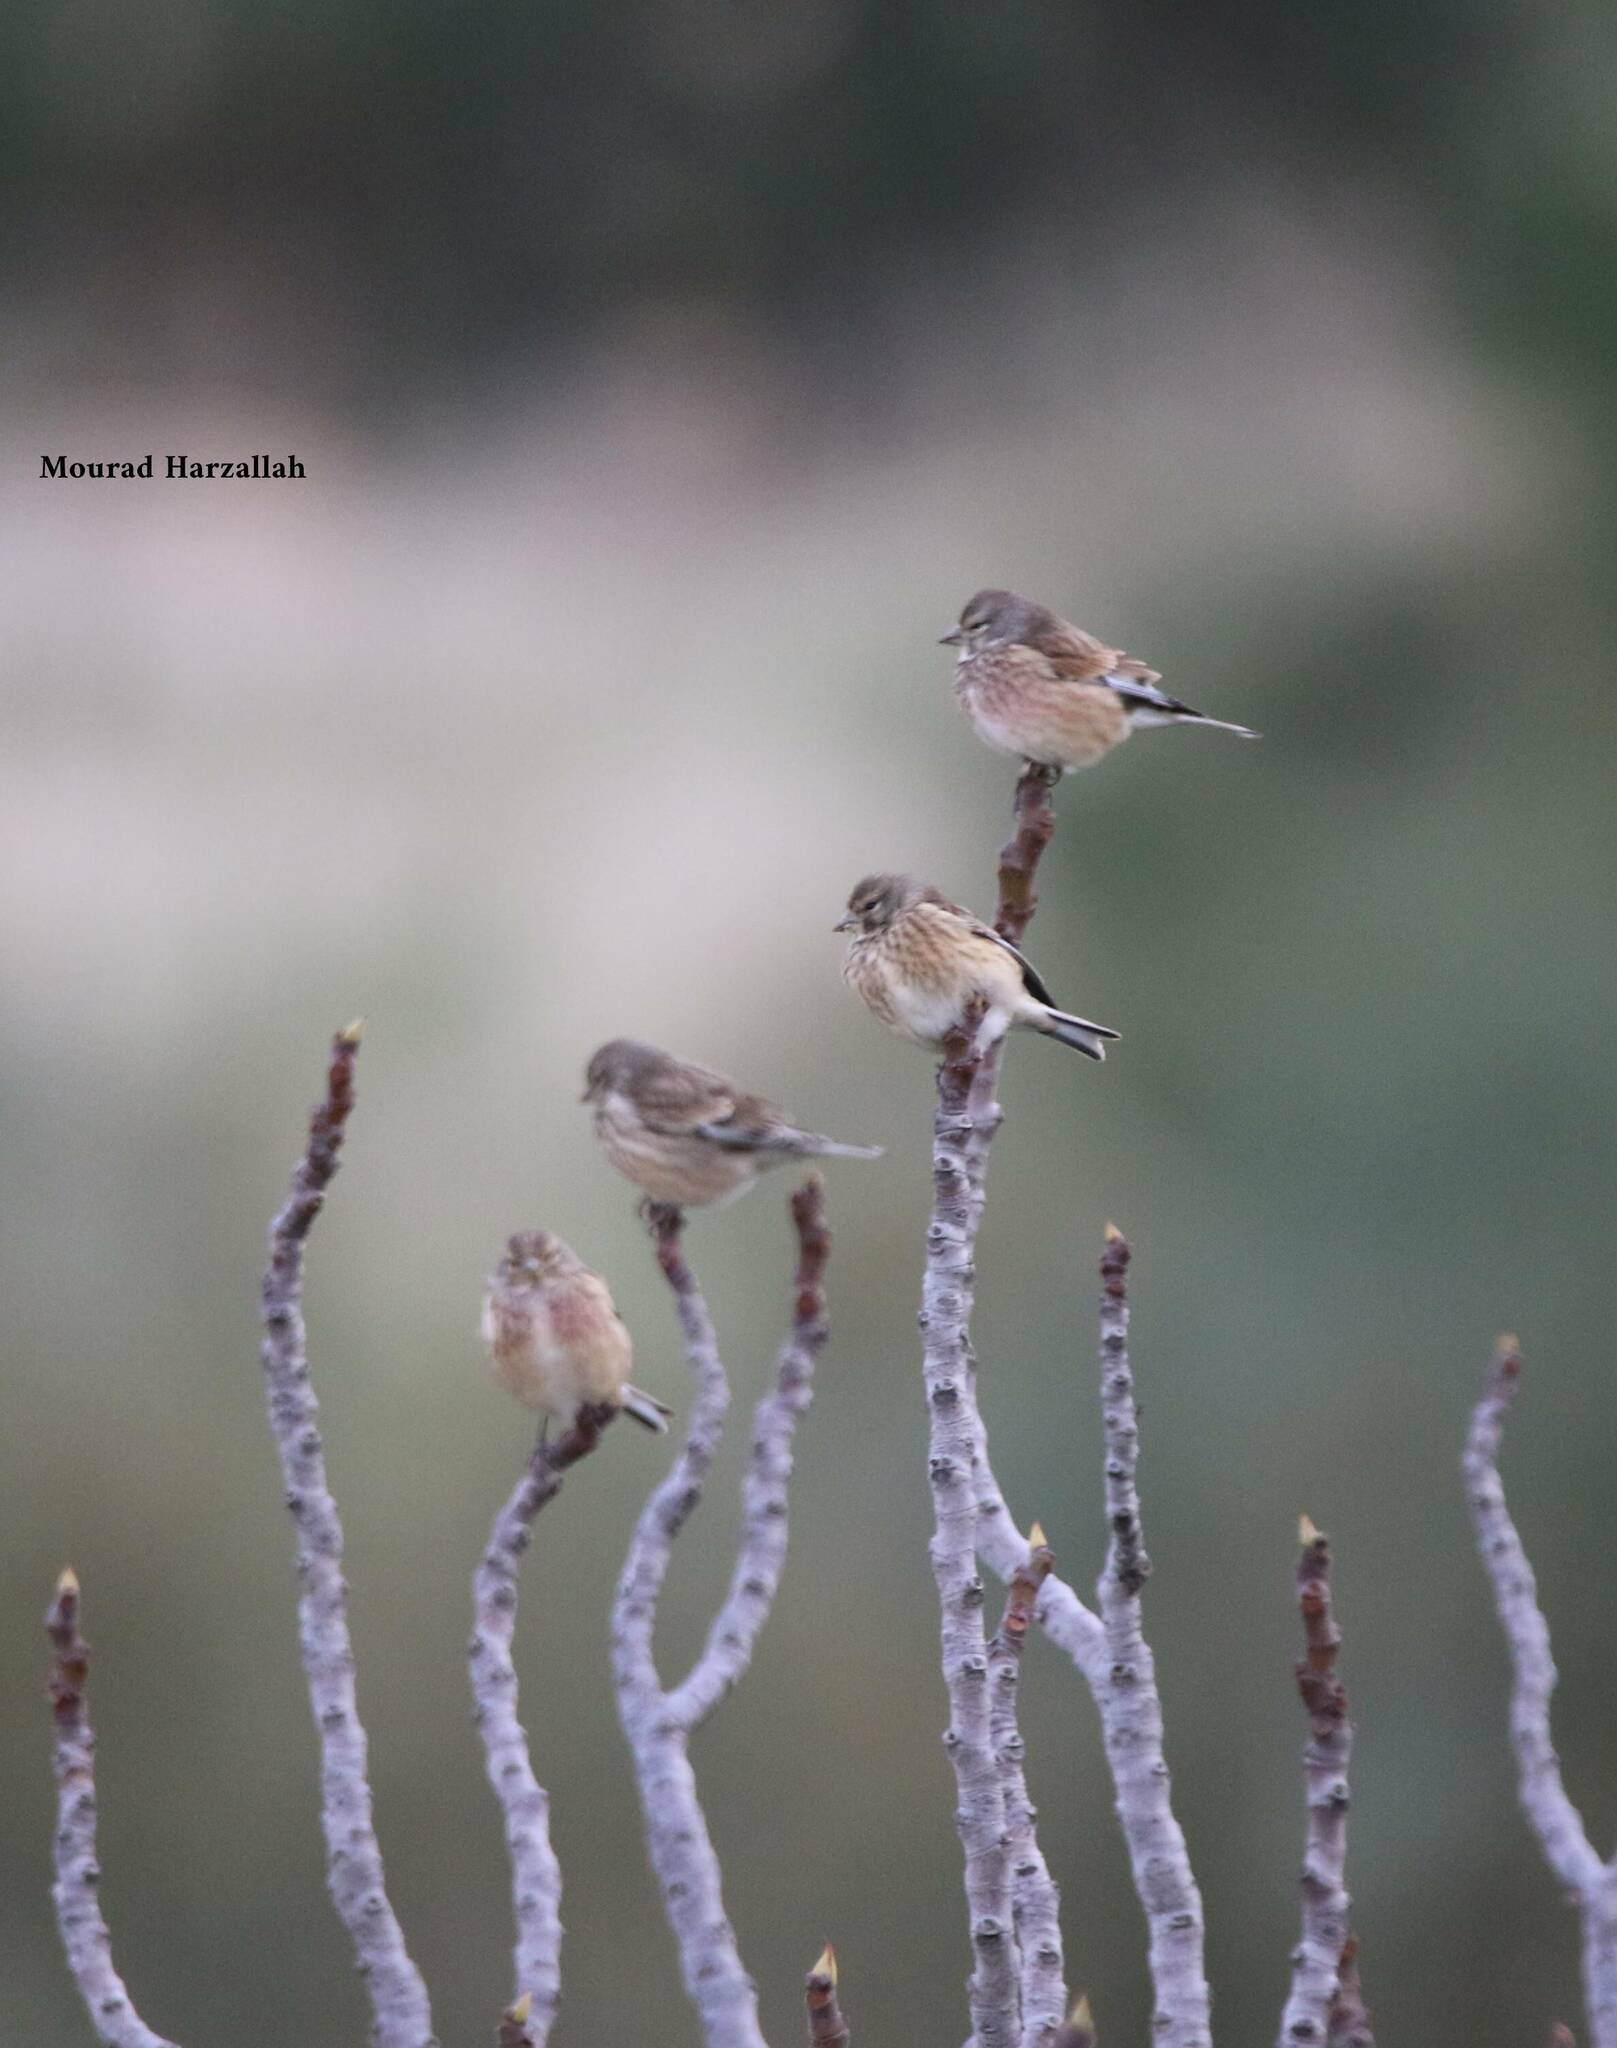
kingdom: Animalia
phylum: Chordata
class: Aves
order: Passeriformes
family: Fringillidae
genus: Linaria
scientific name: Linaria cannabina
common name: Common linnet
